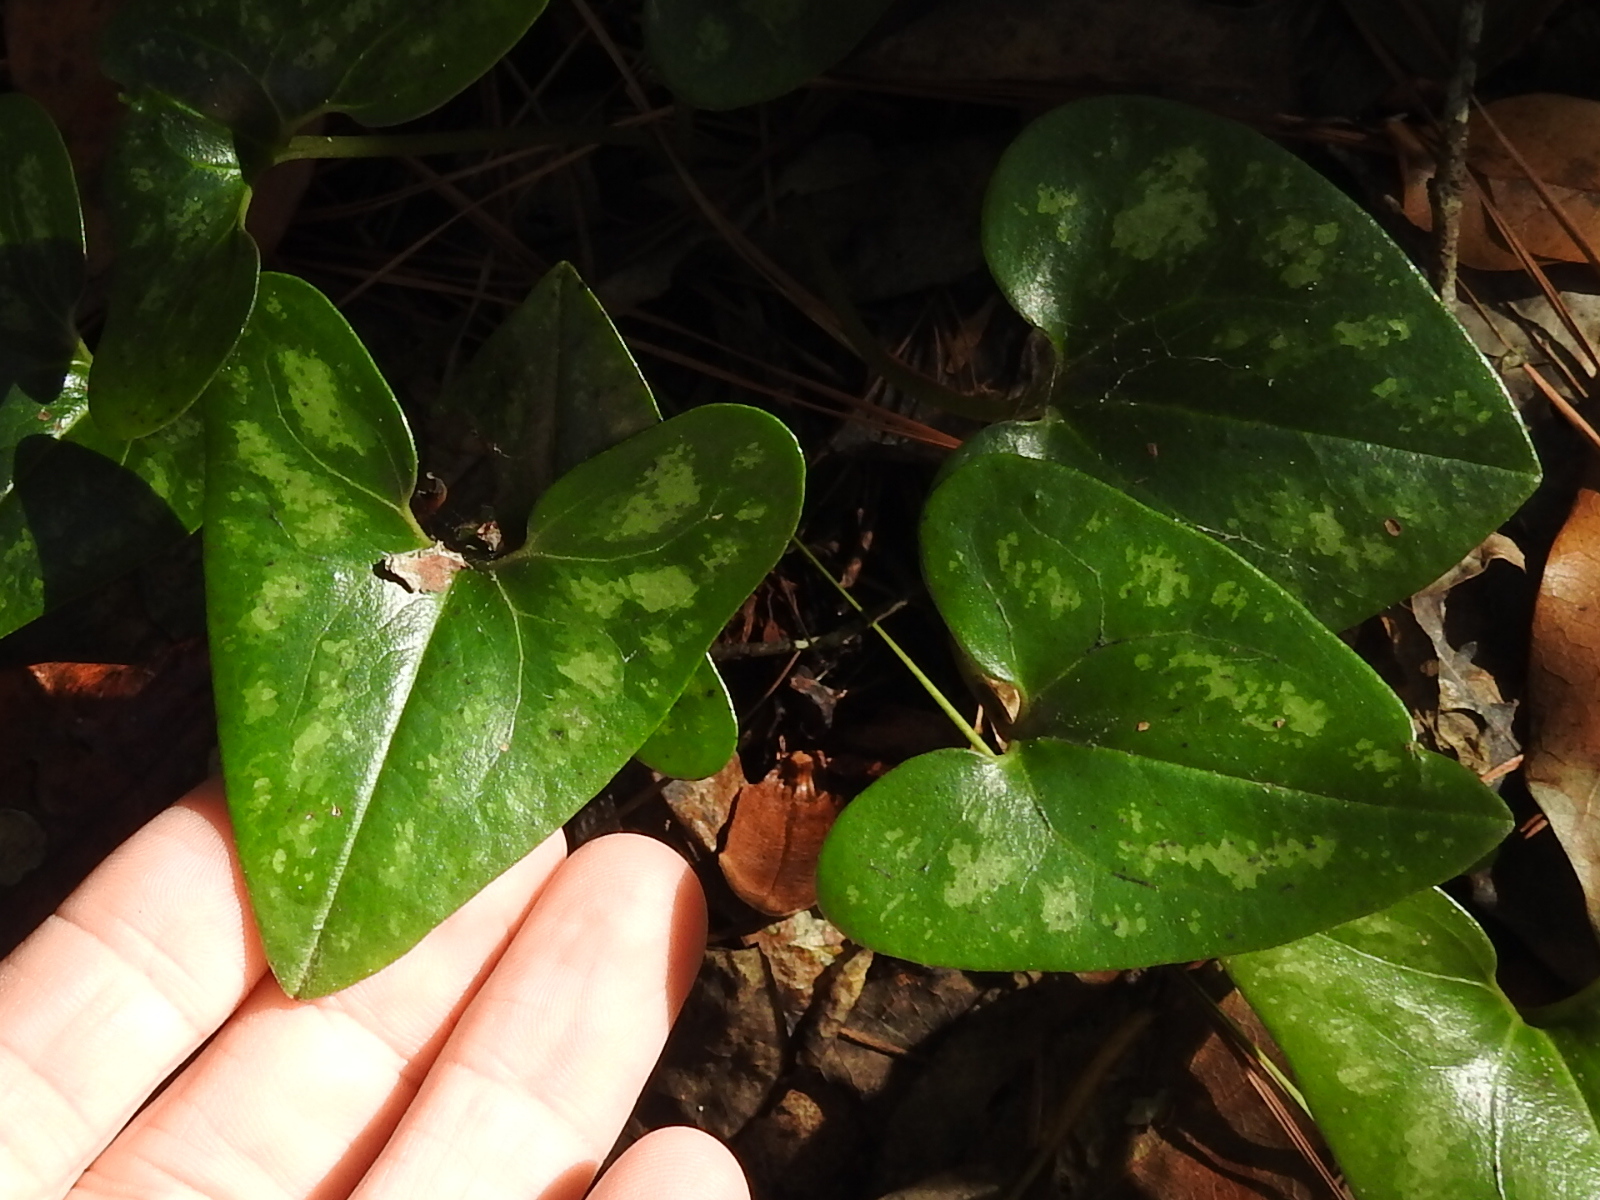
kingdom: Plantae
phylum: Tracheophyta
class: Magnoliopsida
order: Piperales
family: Aristolochiaceae
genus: Hexastylis
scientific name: Hexastylis arifolia
